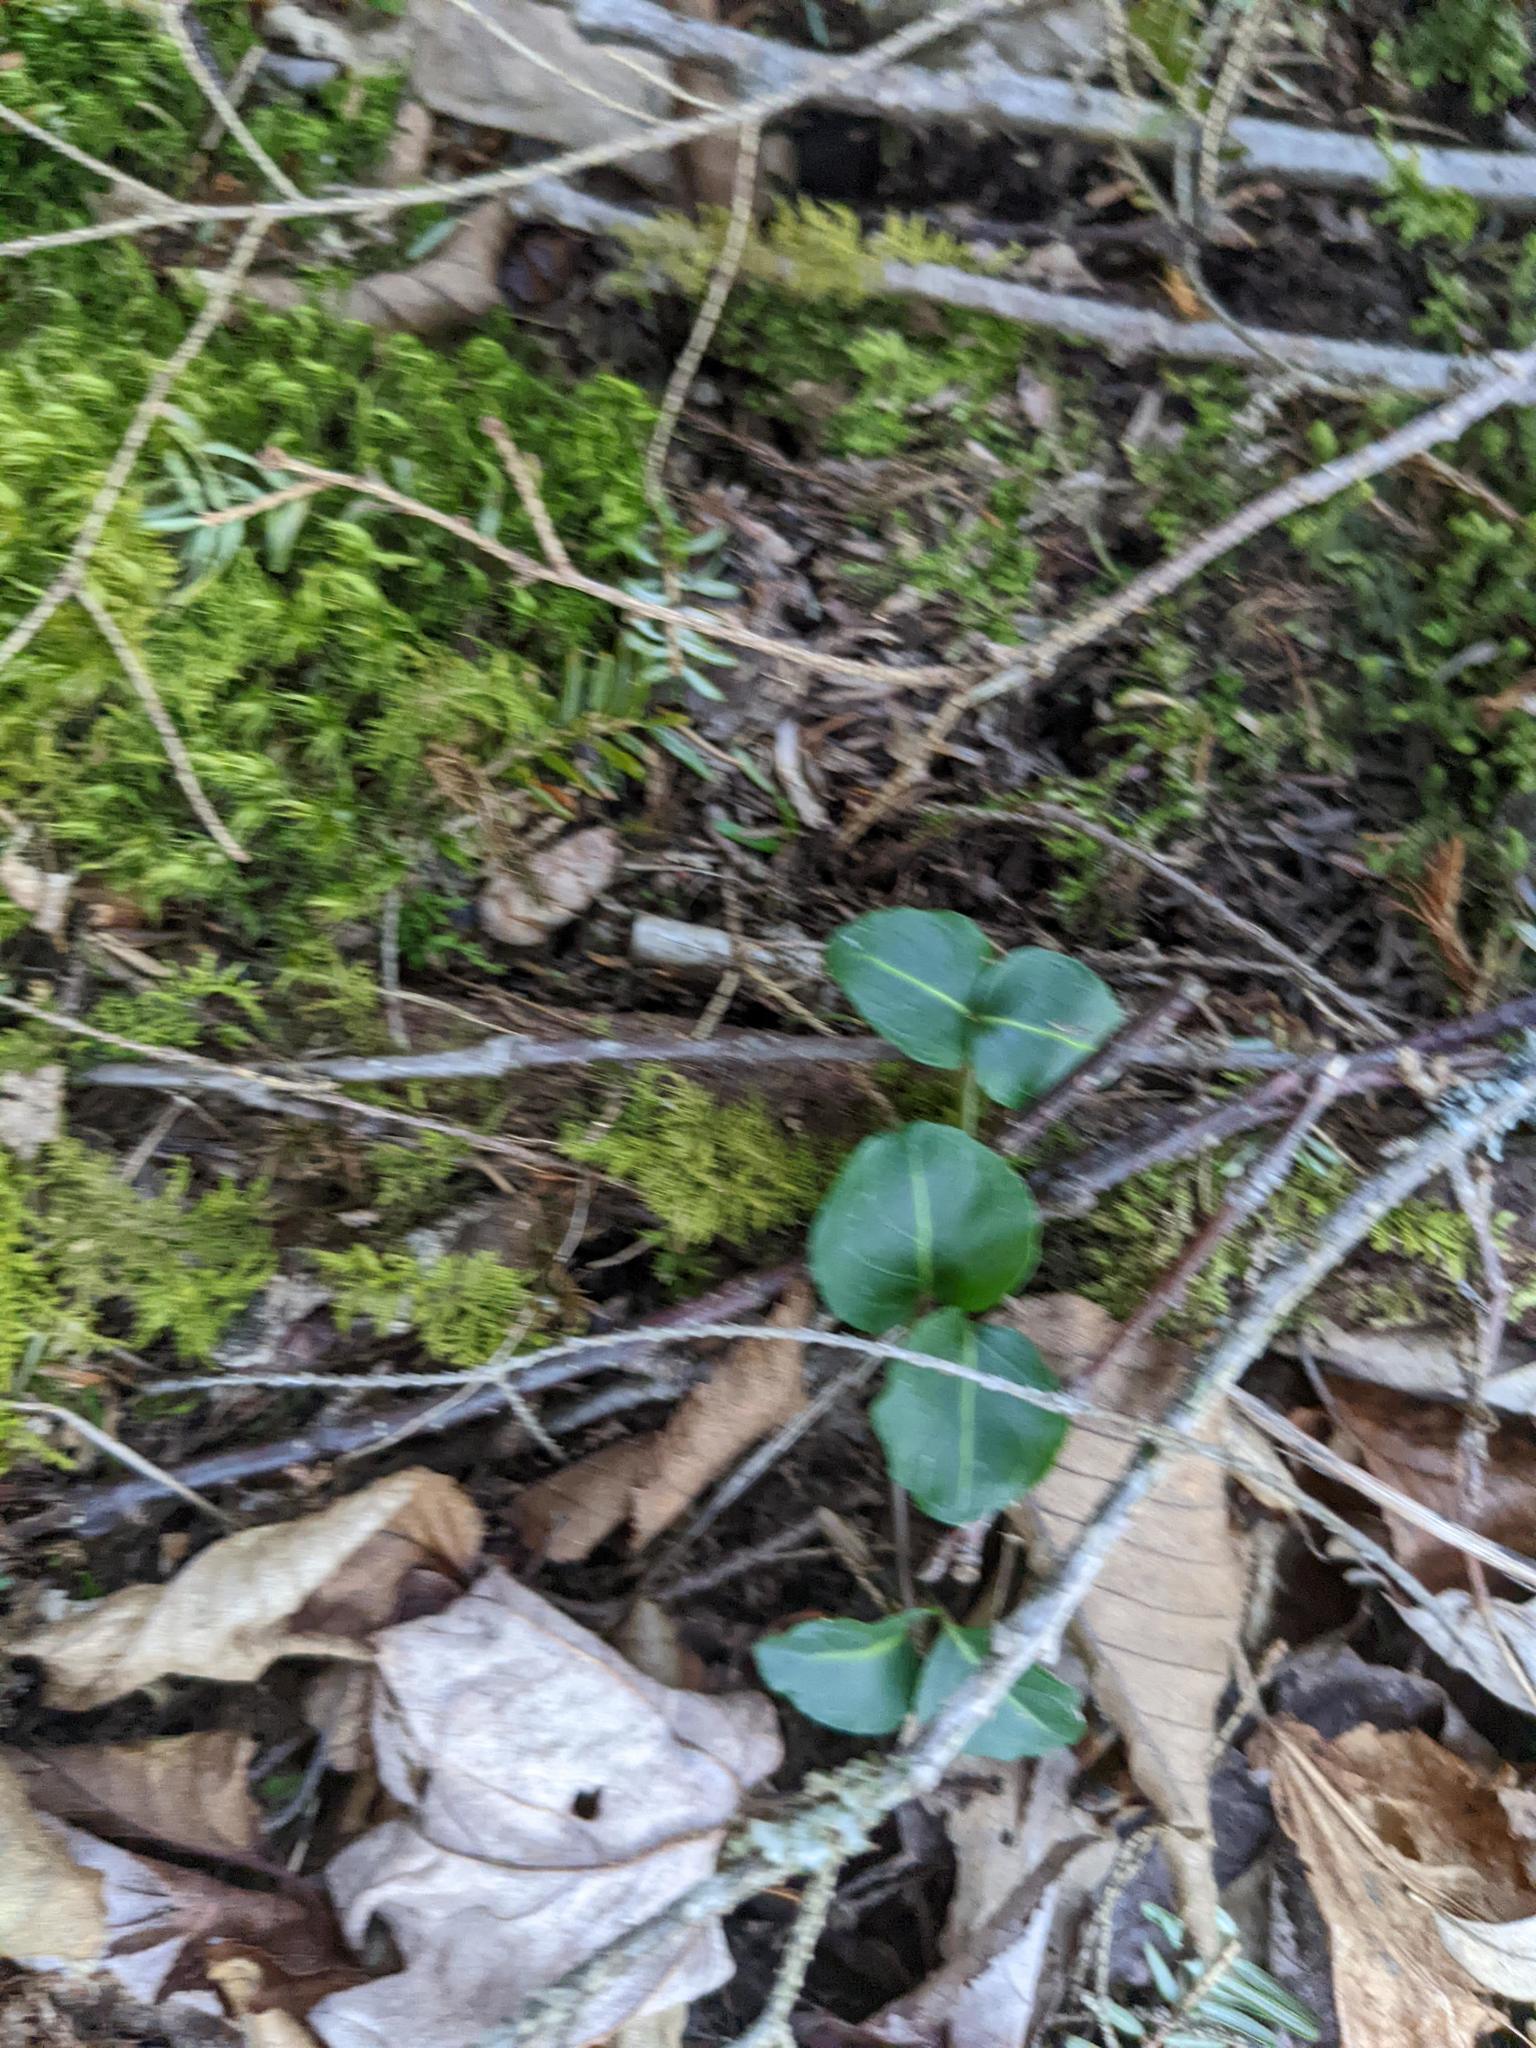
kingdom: Plantae
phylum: Tracheophyta
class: Magnoliopsida
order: Gentianales
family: Rubiaceae
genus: Mitchella
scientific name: Mitchella repens
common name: Partridge-berry
